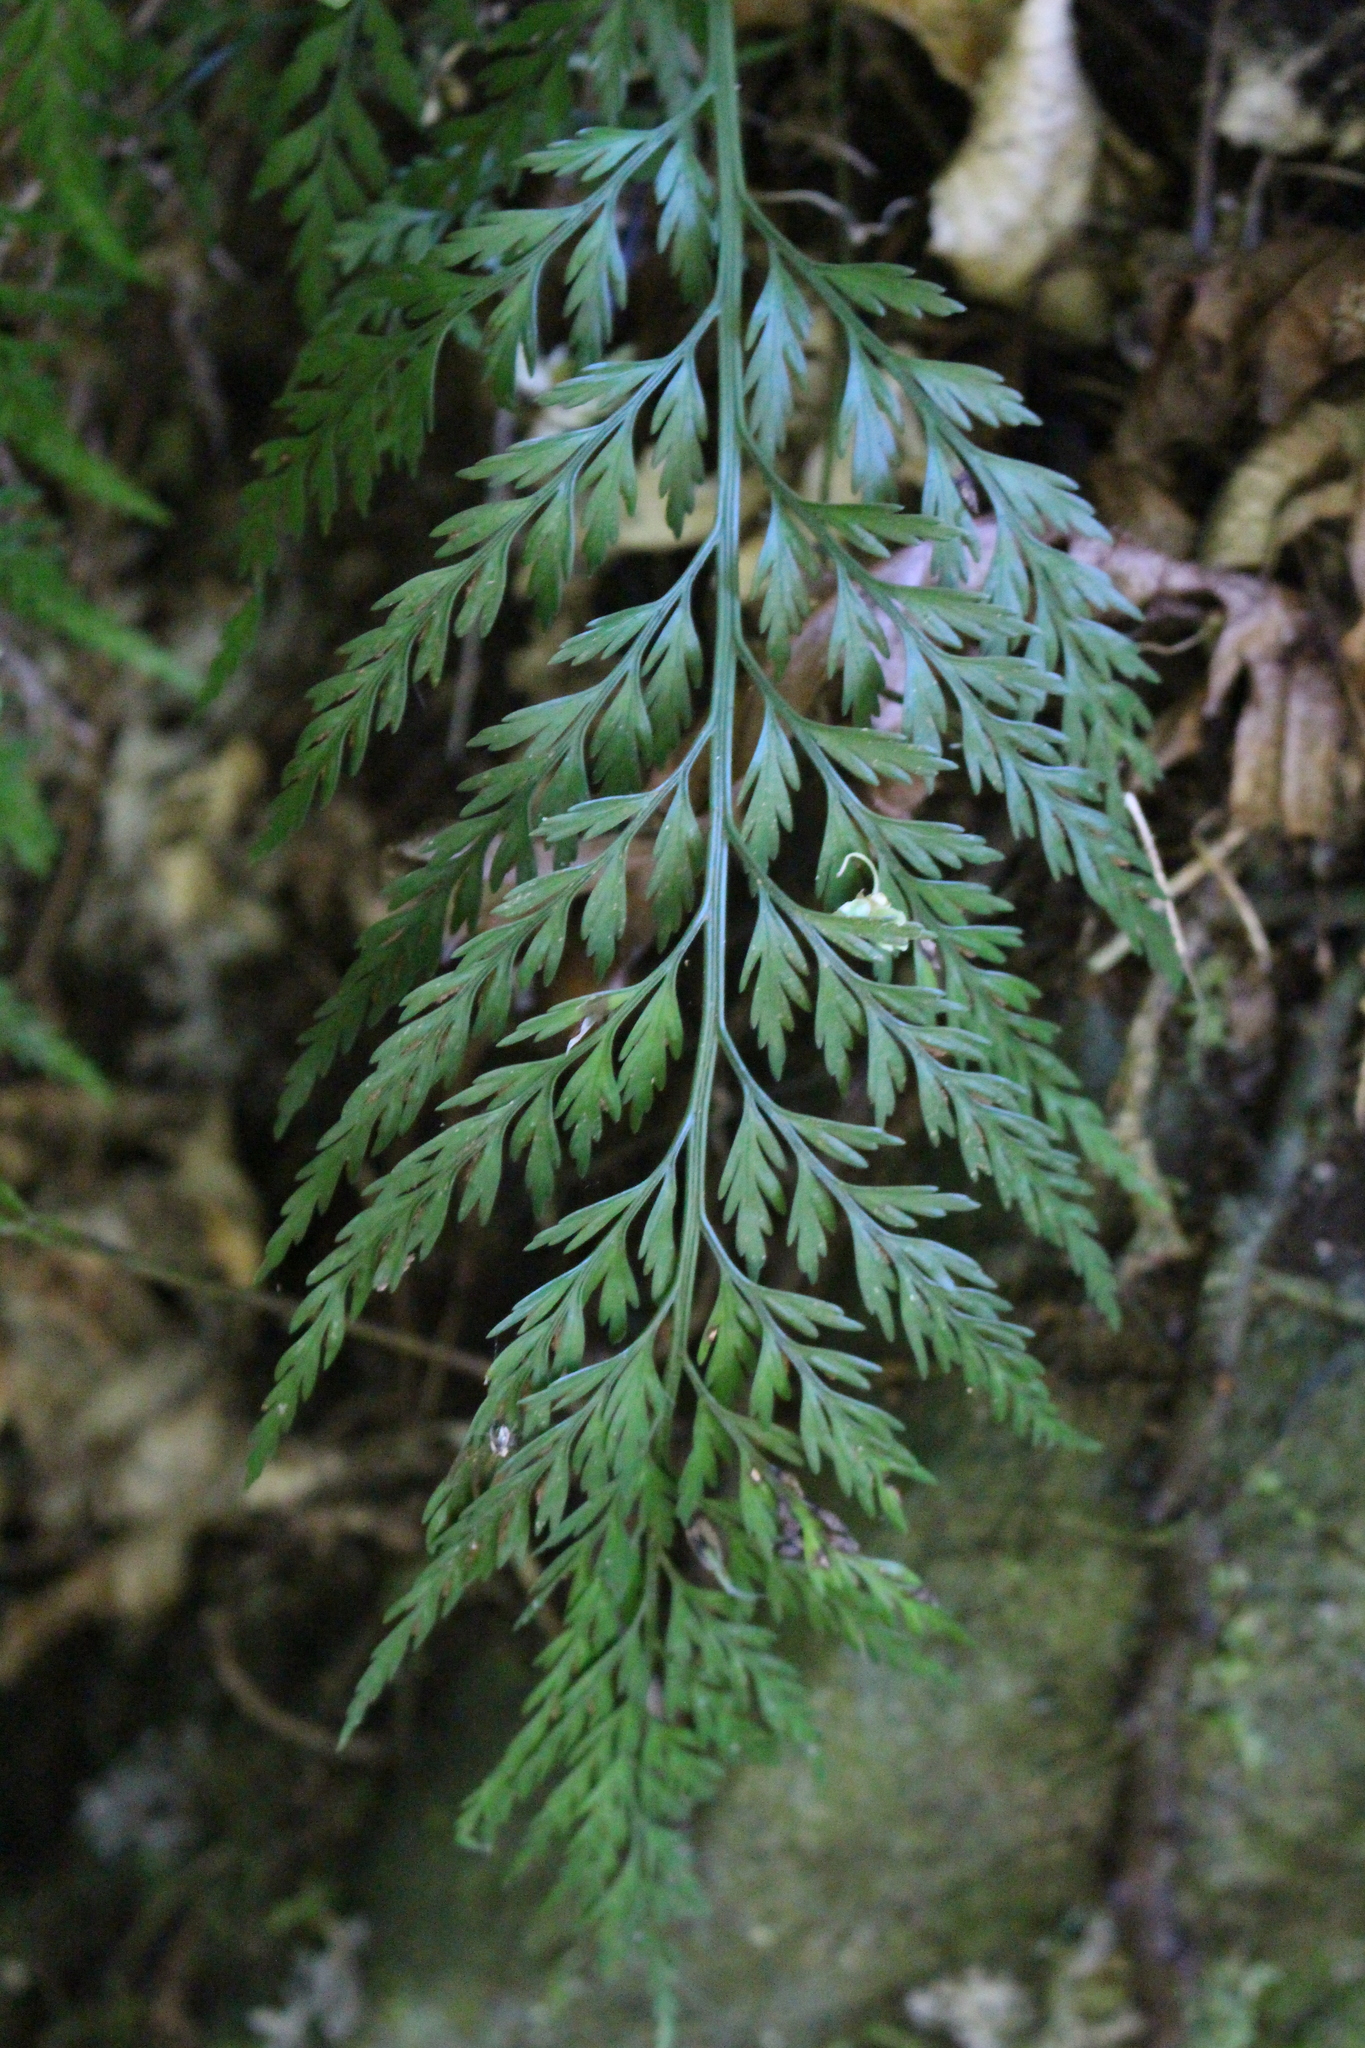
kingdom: Plantae
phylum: Tracheophyta
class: Polypodiopsida
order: Polypodiales
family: Aspleniaceae
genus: Asplenium
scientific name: Asplenium appendiculatum
